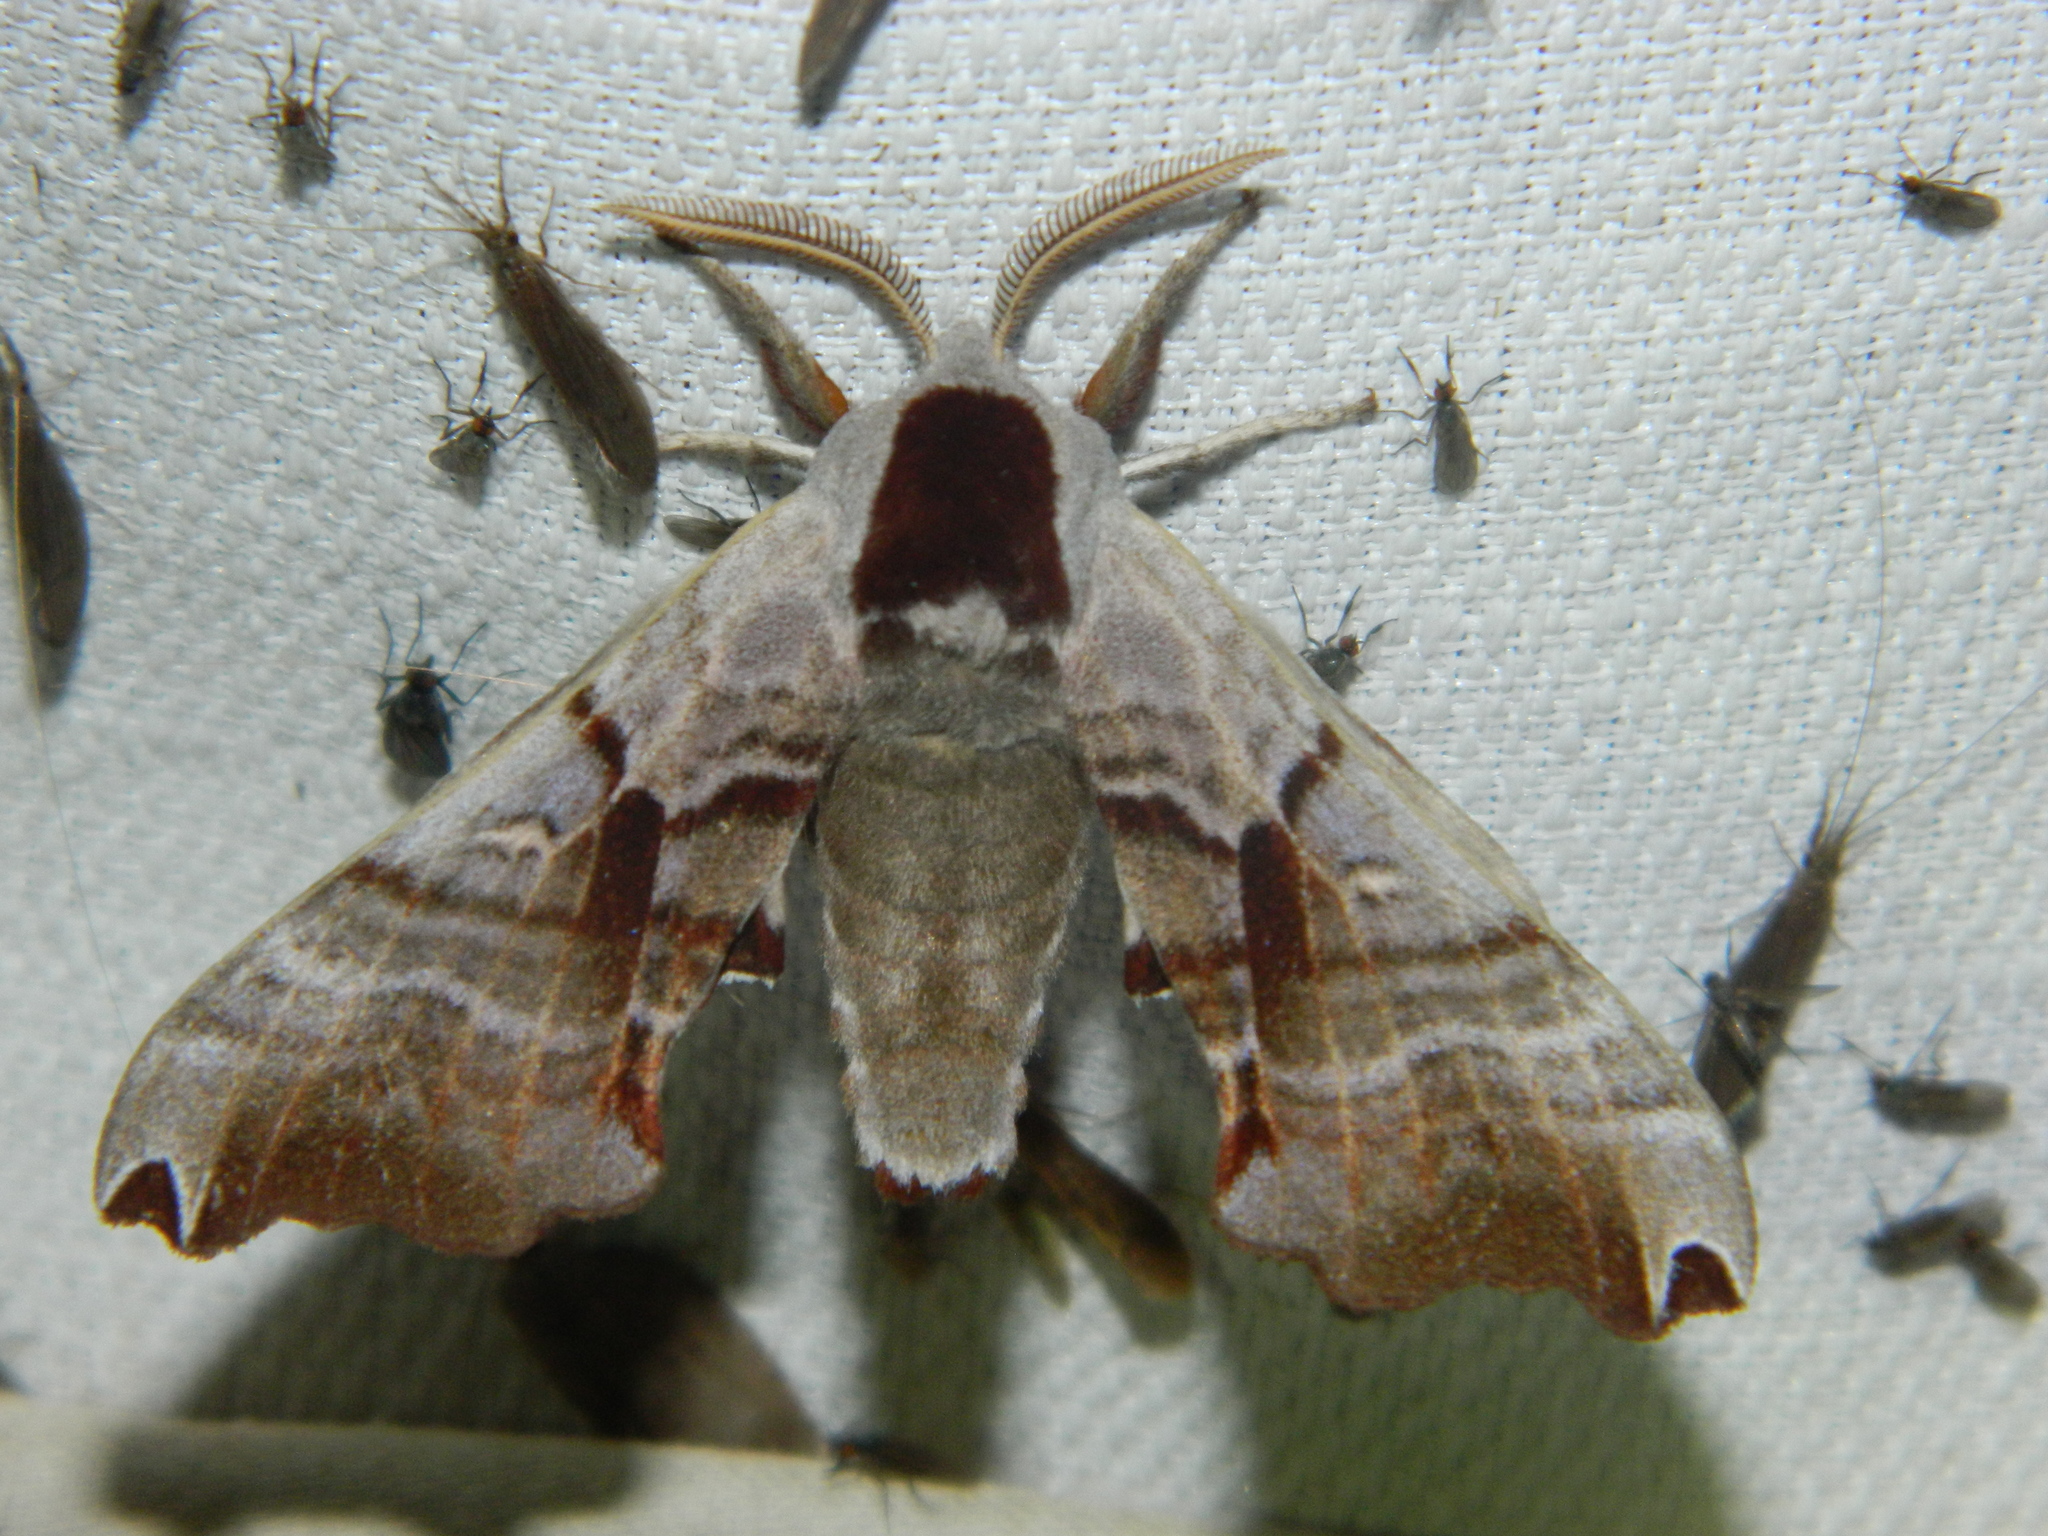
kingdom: Animalia
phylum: Arthropoda
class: Insecta
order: Lepidoptera
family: Sphingidae
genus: Smerinthus
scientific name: Smerinthus jamaicensis
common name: Twin spotted sphinx
